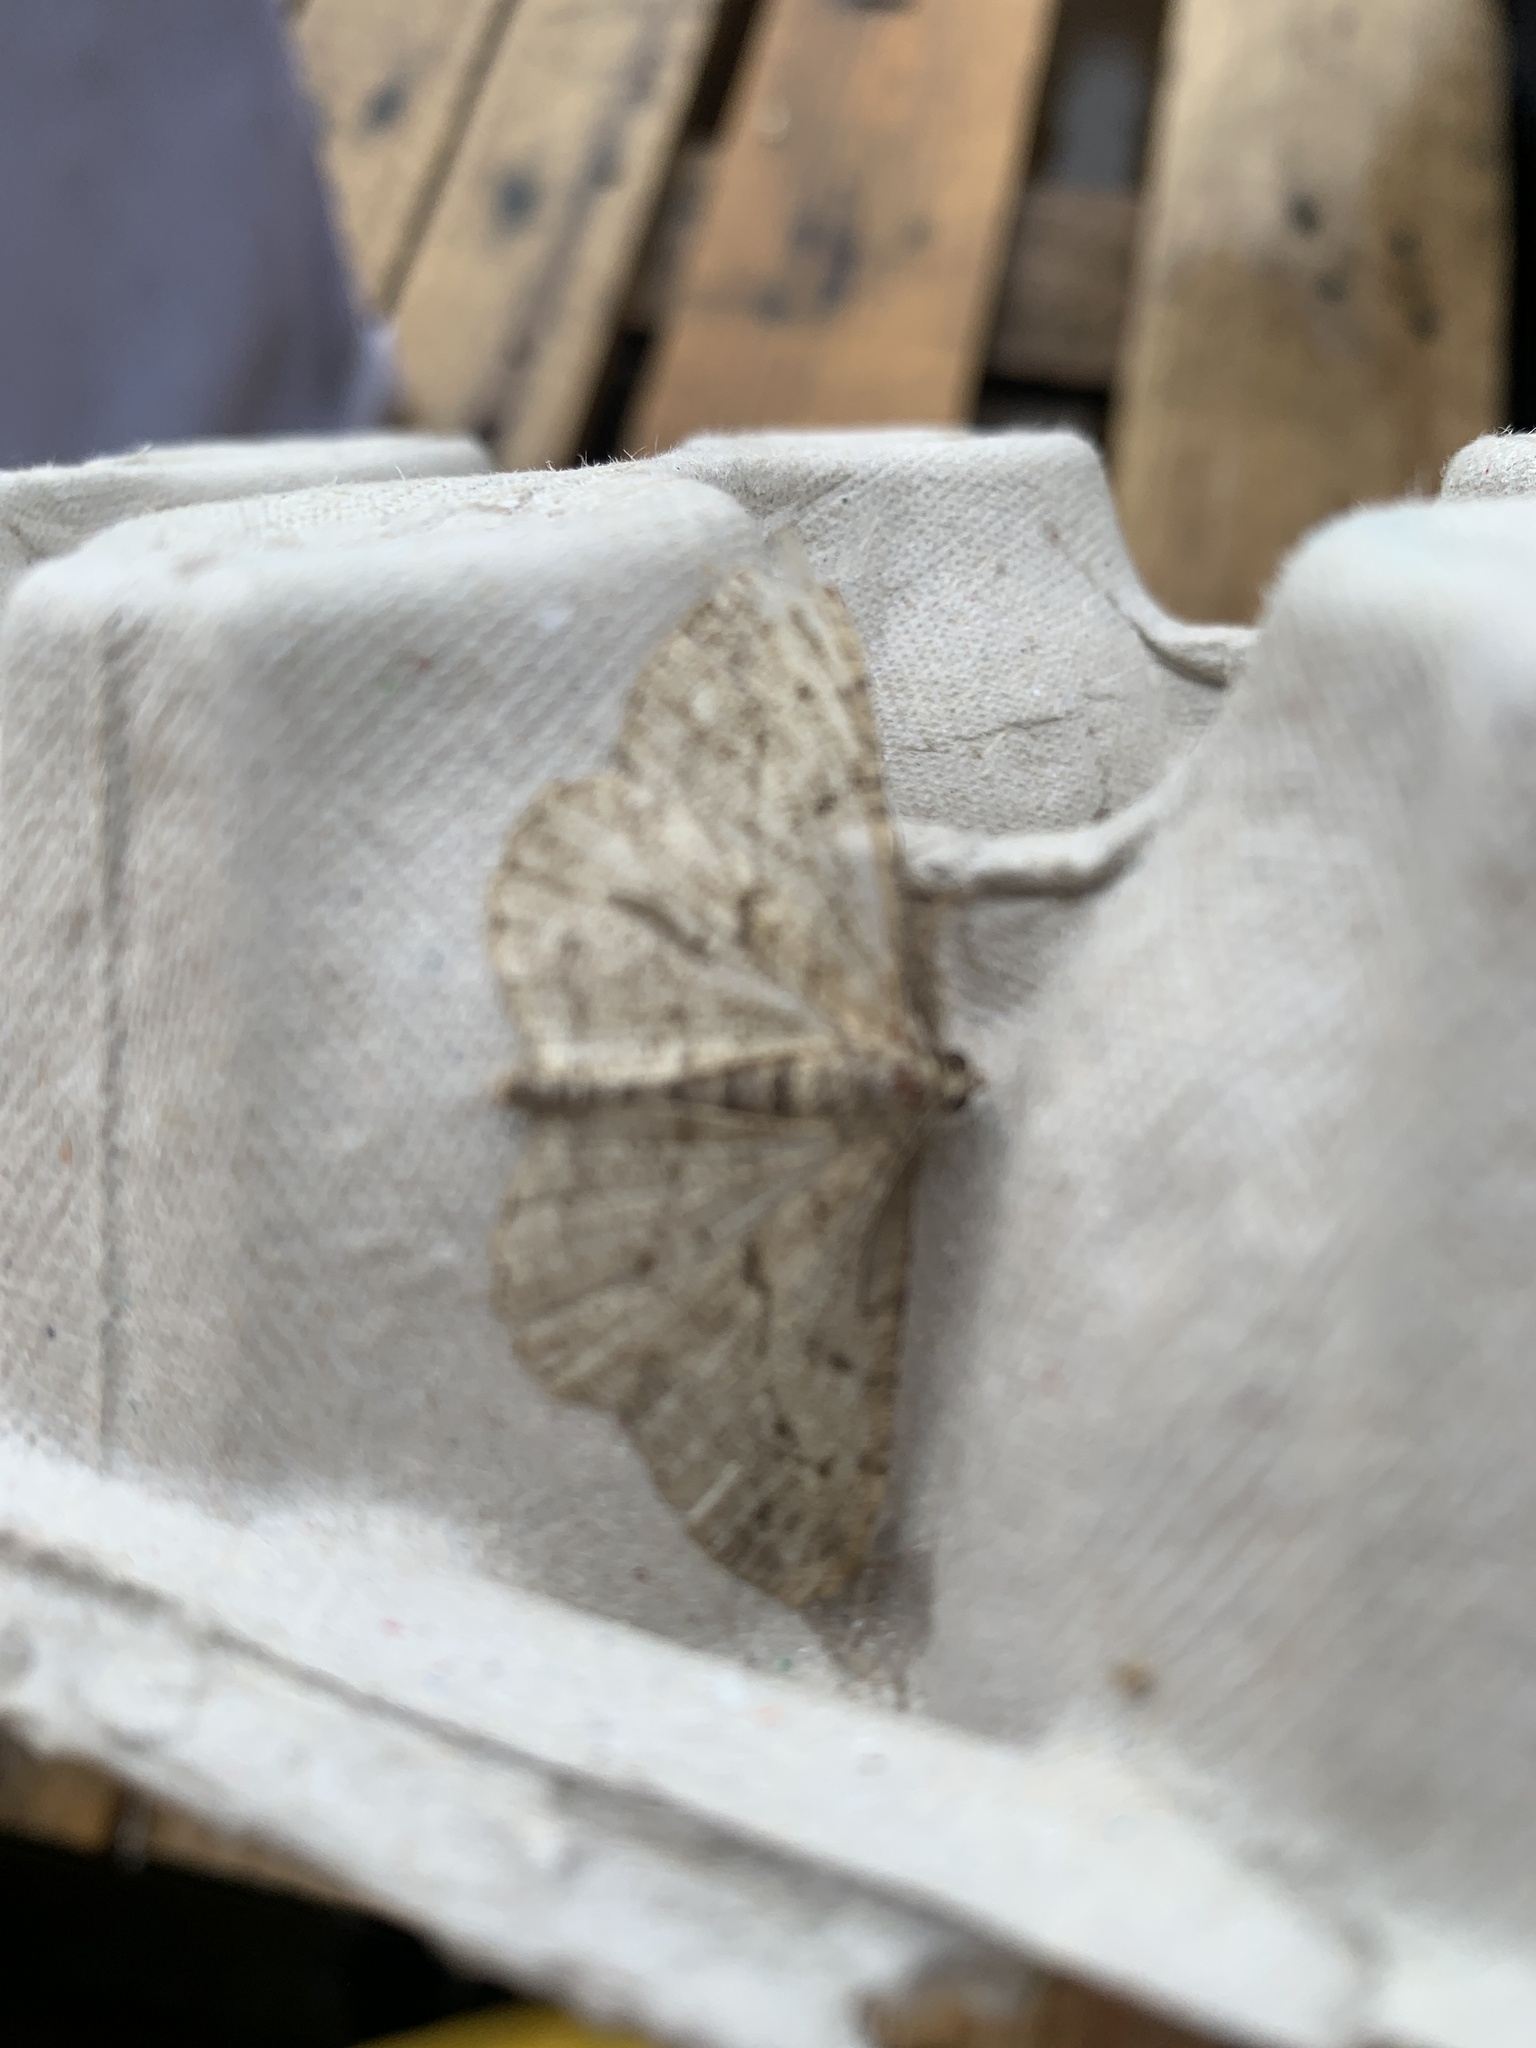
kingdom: Animalia
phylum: Arthropoda
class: Insecta
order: Lepidoptera
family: Geometridae
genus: Peribatodes
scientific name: Peribatodes rhomboidaria
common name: Willow beauty
